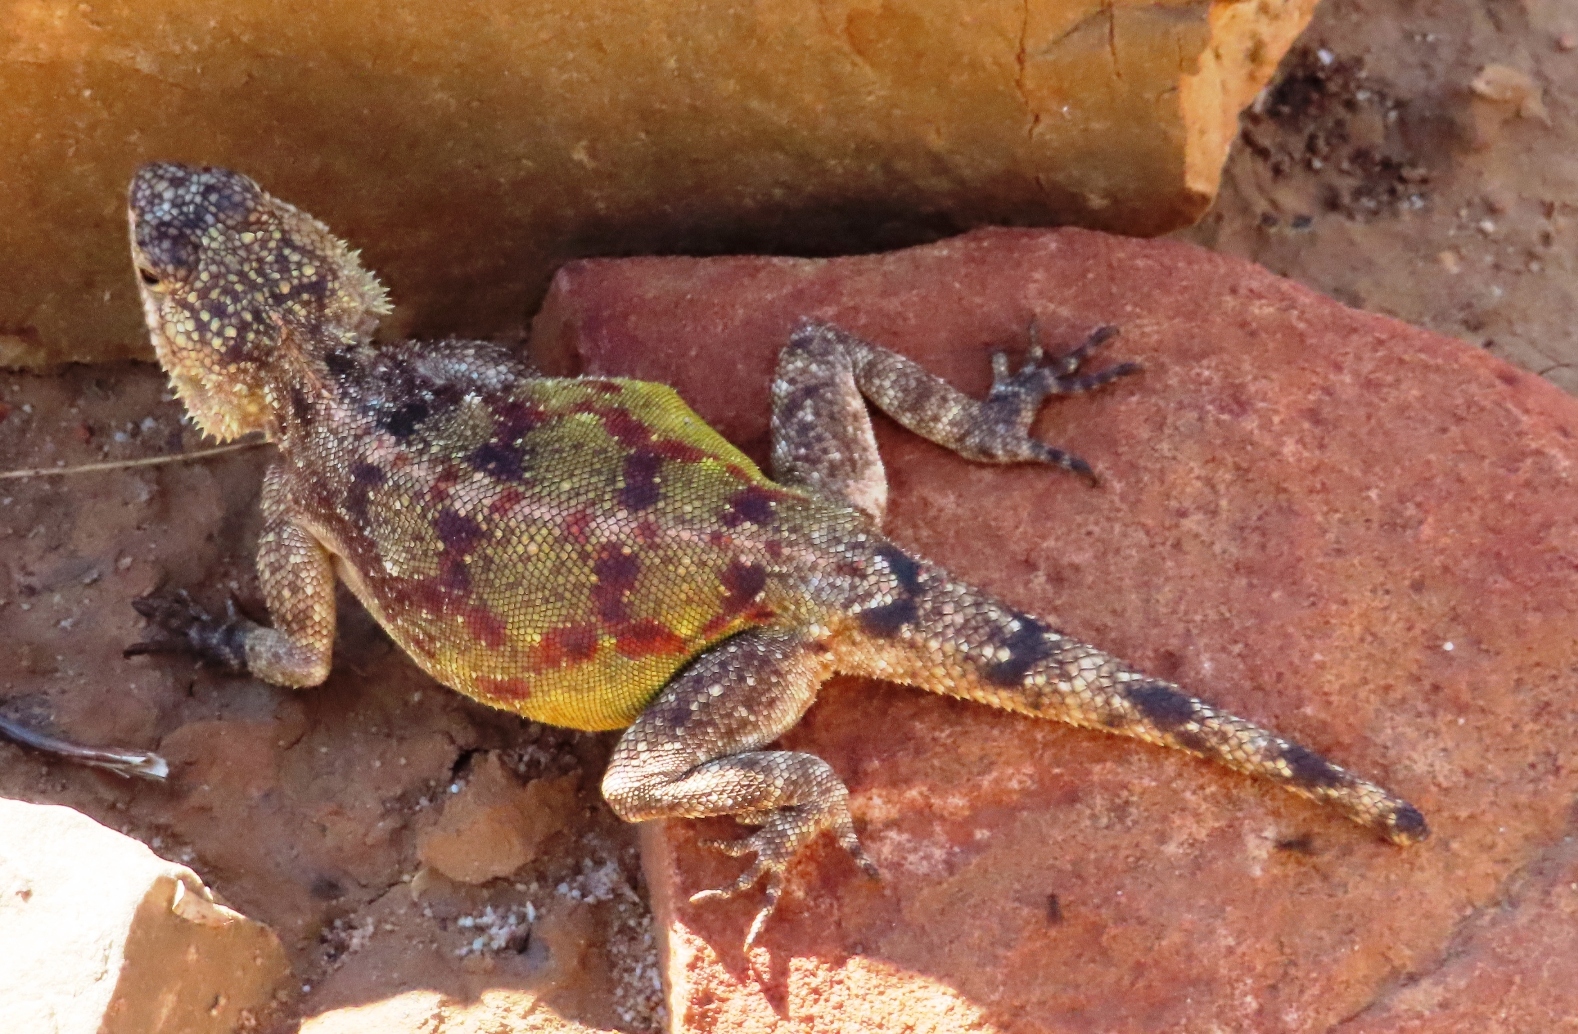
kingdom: Animalia
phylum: Chordata
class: Squamata
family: Agamidae
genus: Agama
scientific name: Agama atra
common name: Southern african rock agama
